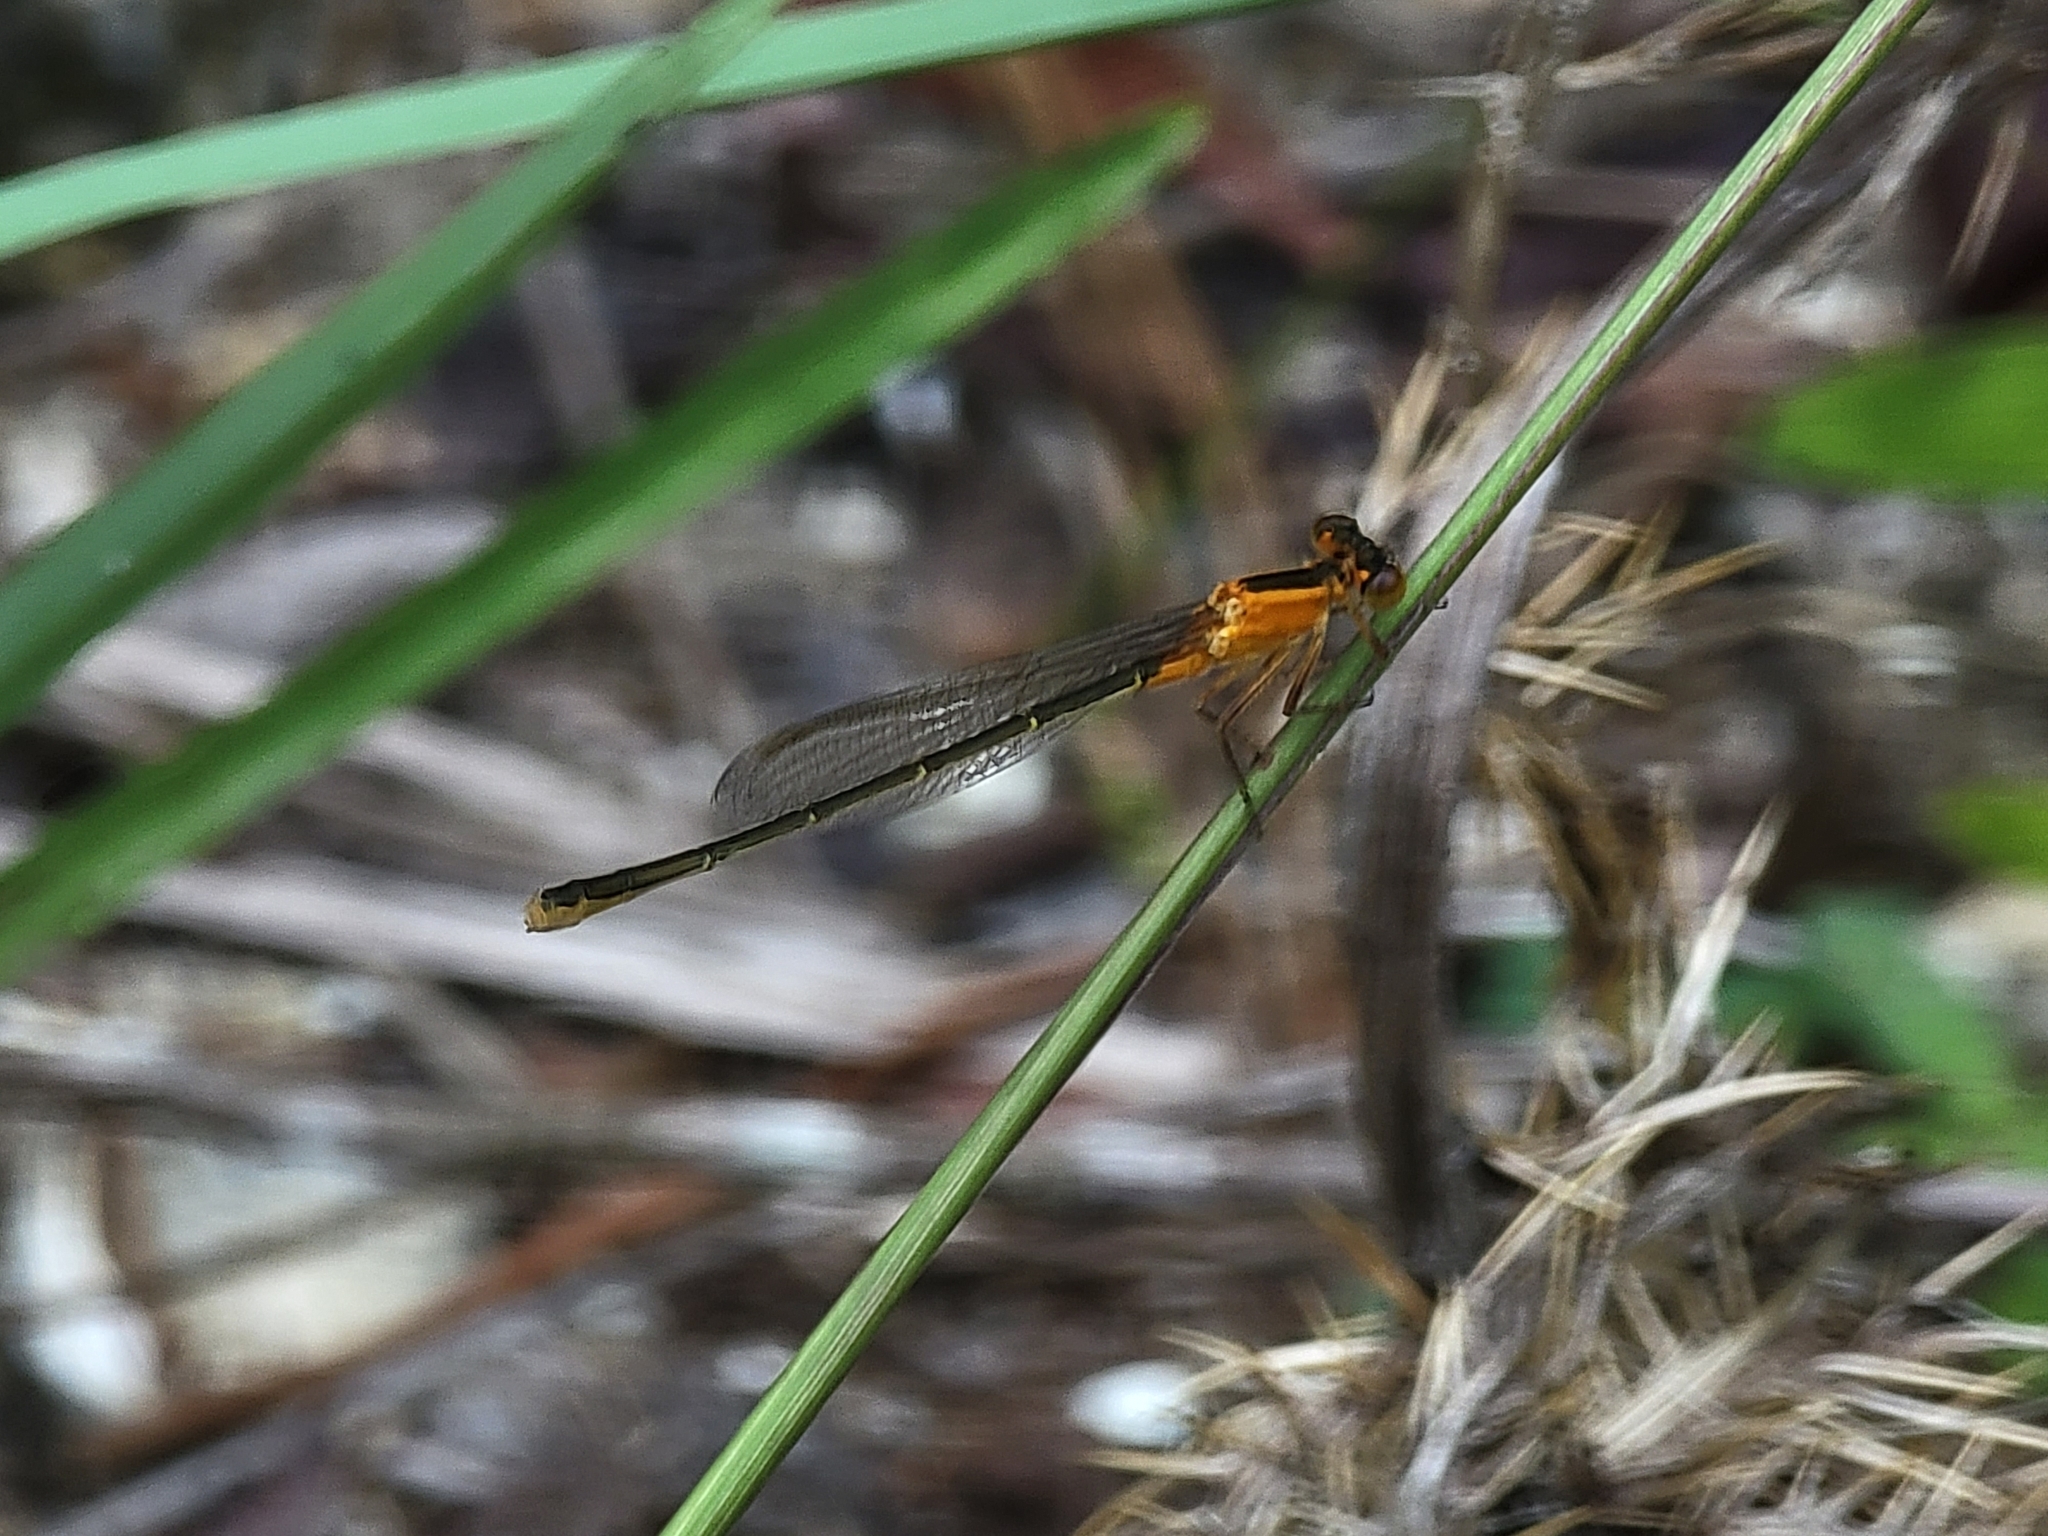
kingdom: Animalia
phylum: Arthropoda
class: Insecta
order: Odonata
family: Coenagrionidae
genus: Ischnura
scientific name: Ischnura ramburii
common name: Rambur's forktail
